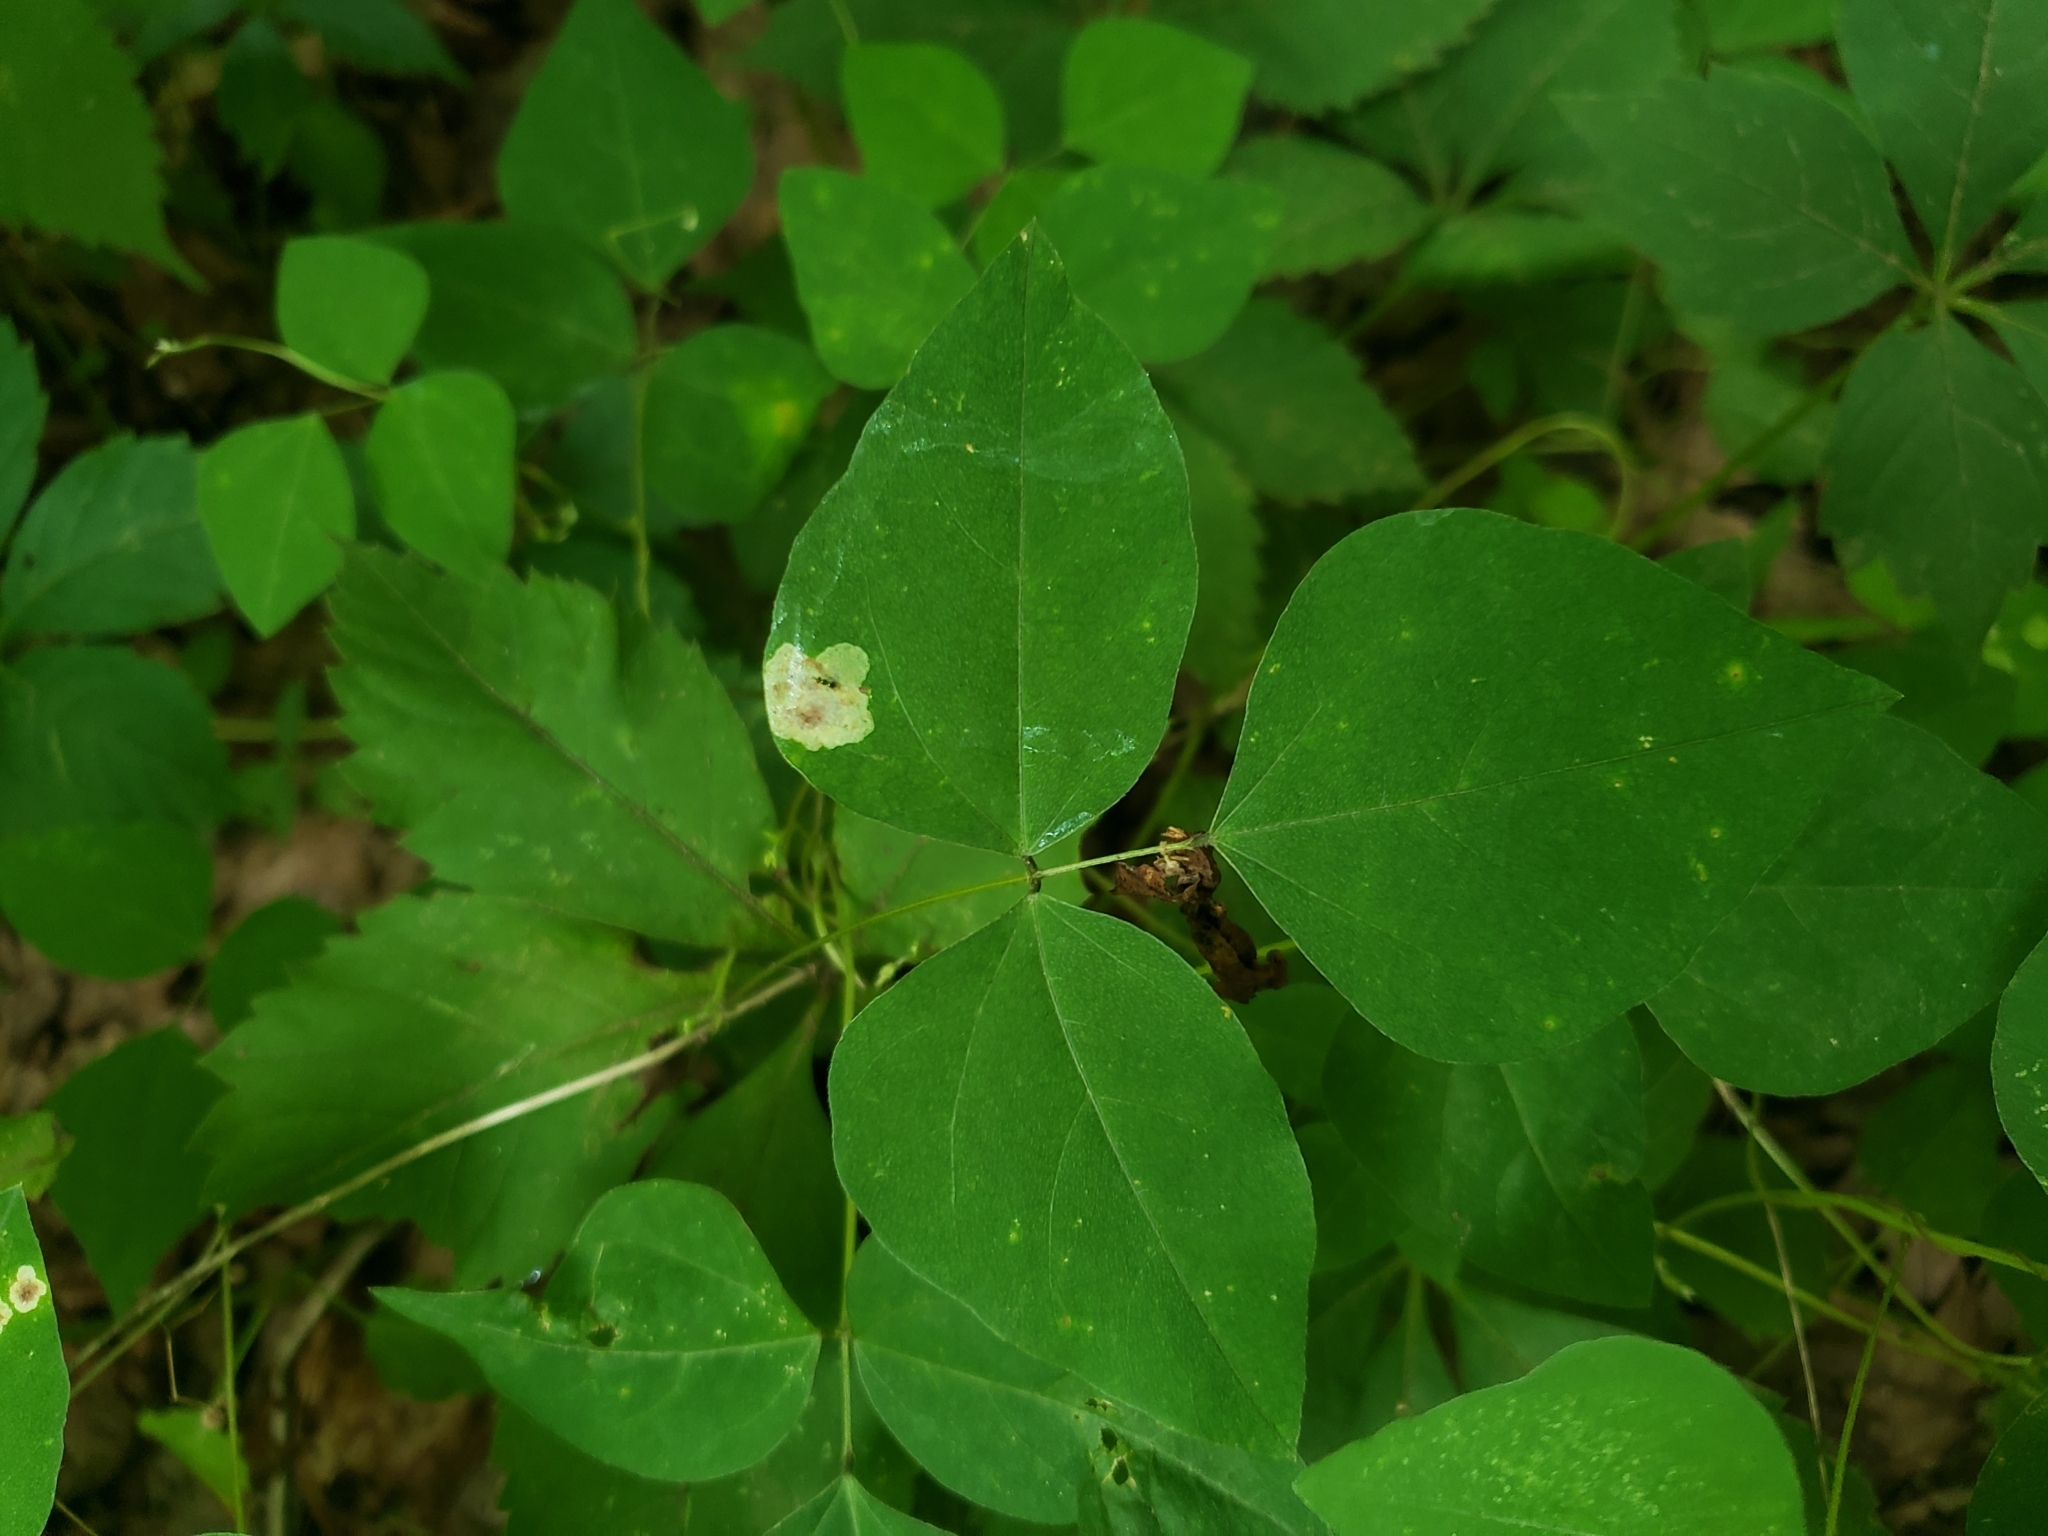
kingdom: Animalia
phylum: Arthropoda
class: Insecta
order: Lepidoptera
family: Gracillariidae
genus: Leucanthiza
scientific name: Leucanthiza amphicarpeaefoliella
